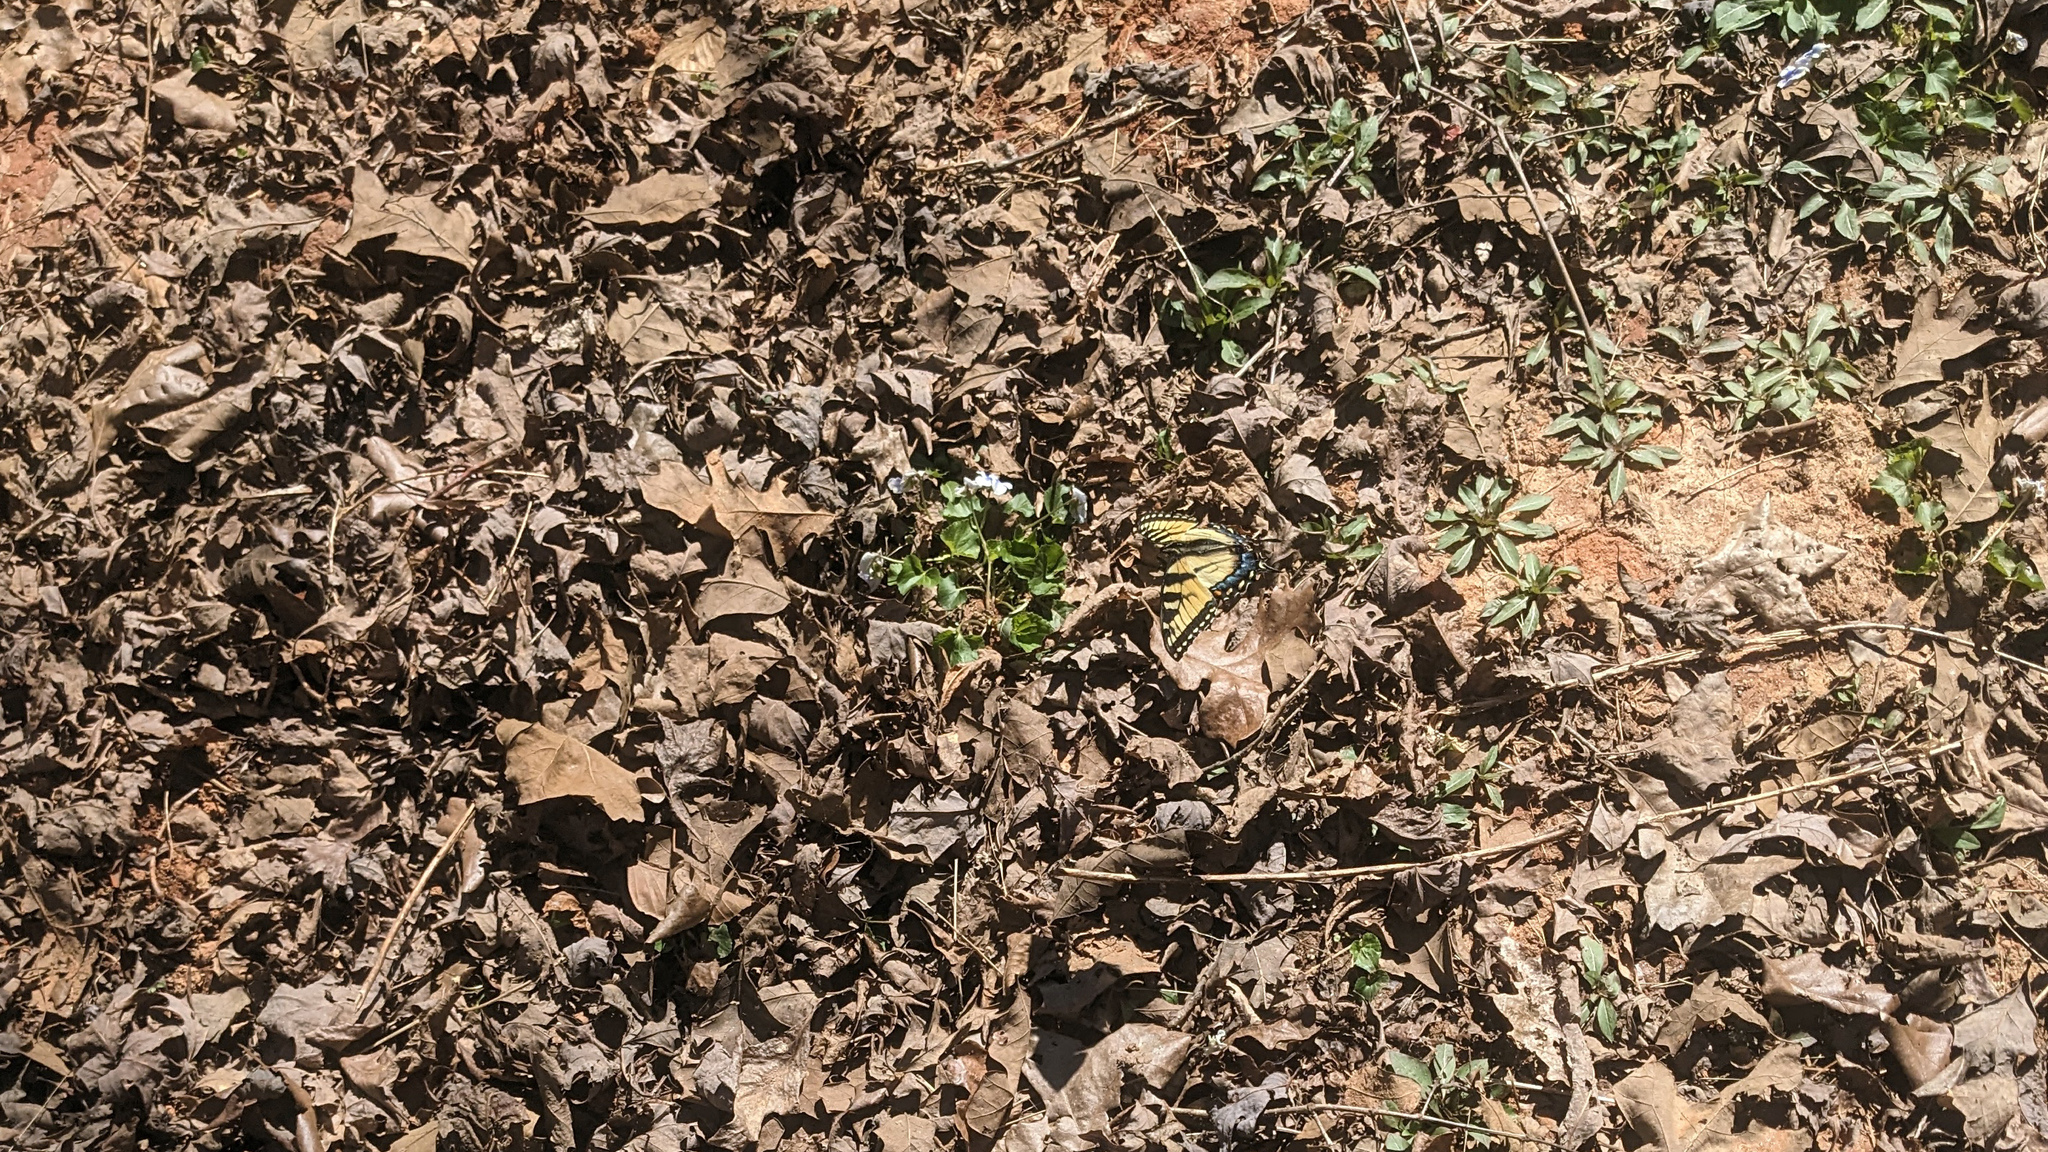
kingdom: Animalia
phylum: Arthropoda
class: Insecta
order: Lepidoptera
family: Papilionidae
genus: Papilio
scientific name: Papilio glaucus
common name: Tiger swallowtail
